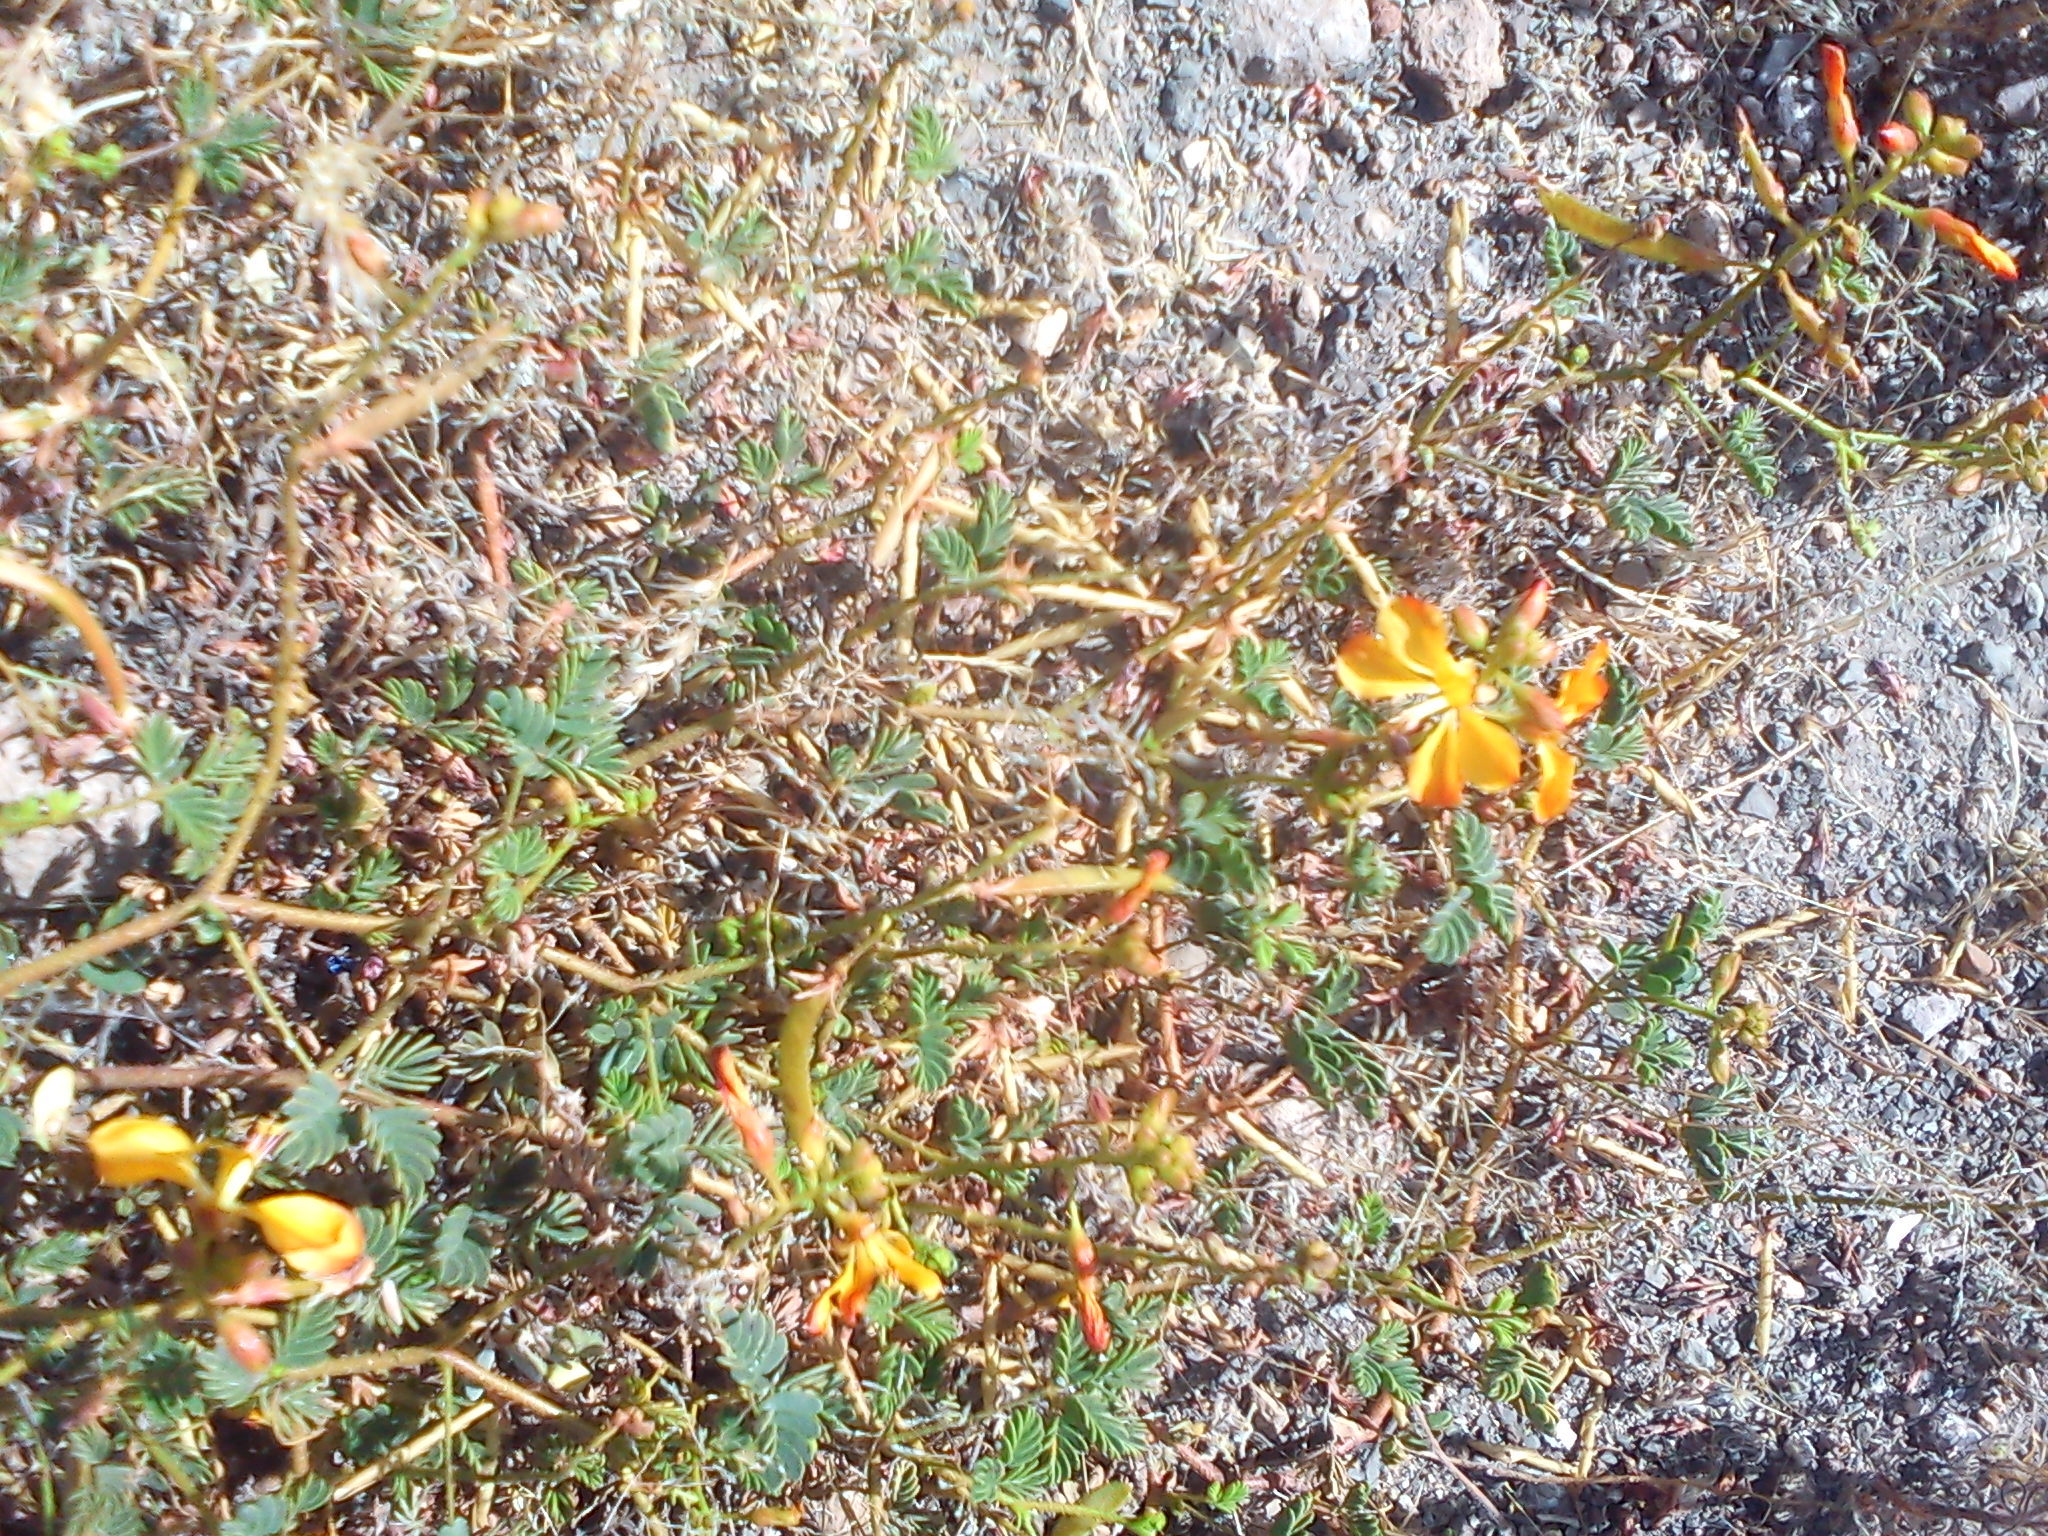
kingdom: Plantae
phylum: Tracheophyta
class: Magnoliopsida
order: Fabales
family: Fabaceae
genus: Hoffmannseggia
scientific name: Hoffmannseggia viscosa
